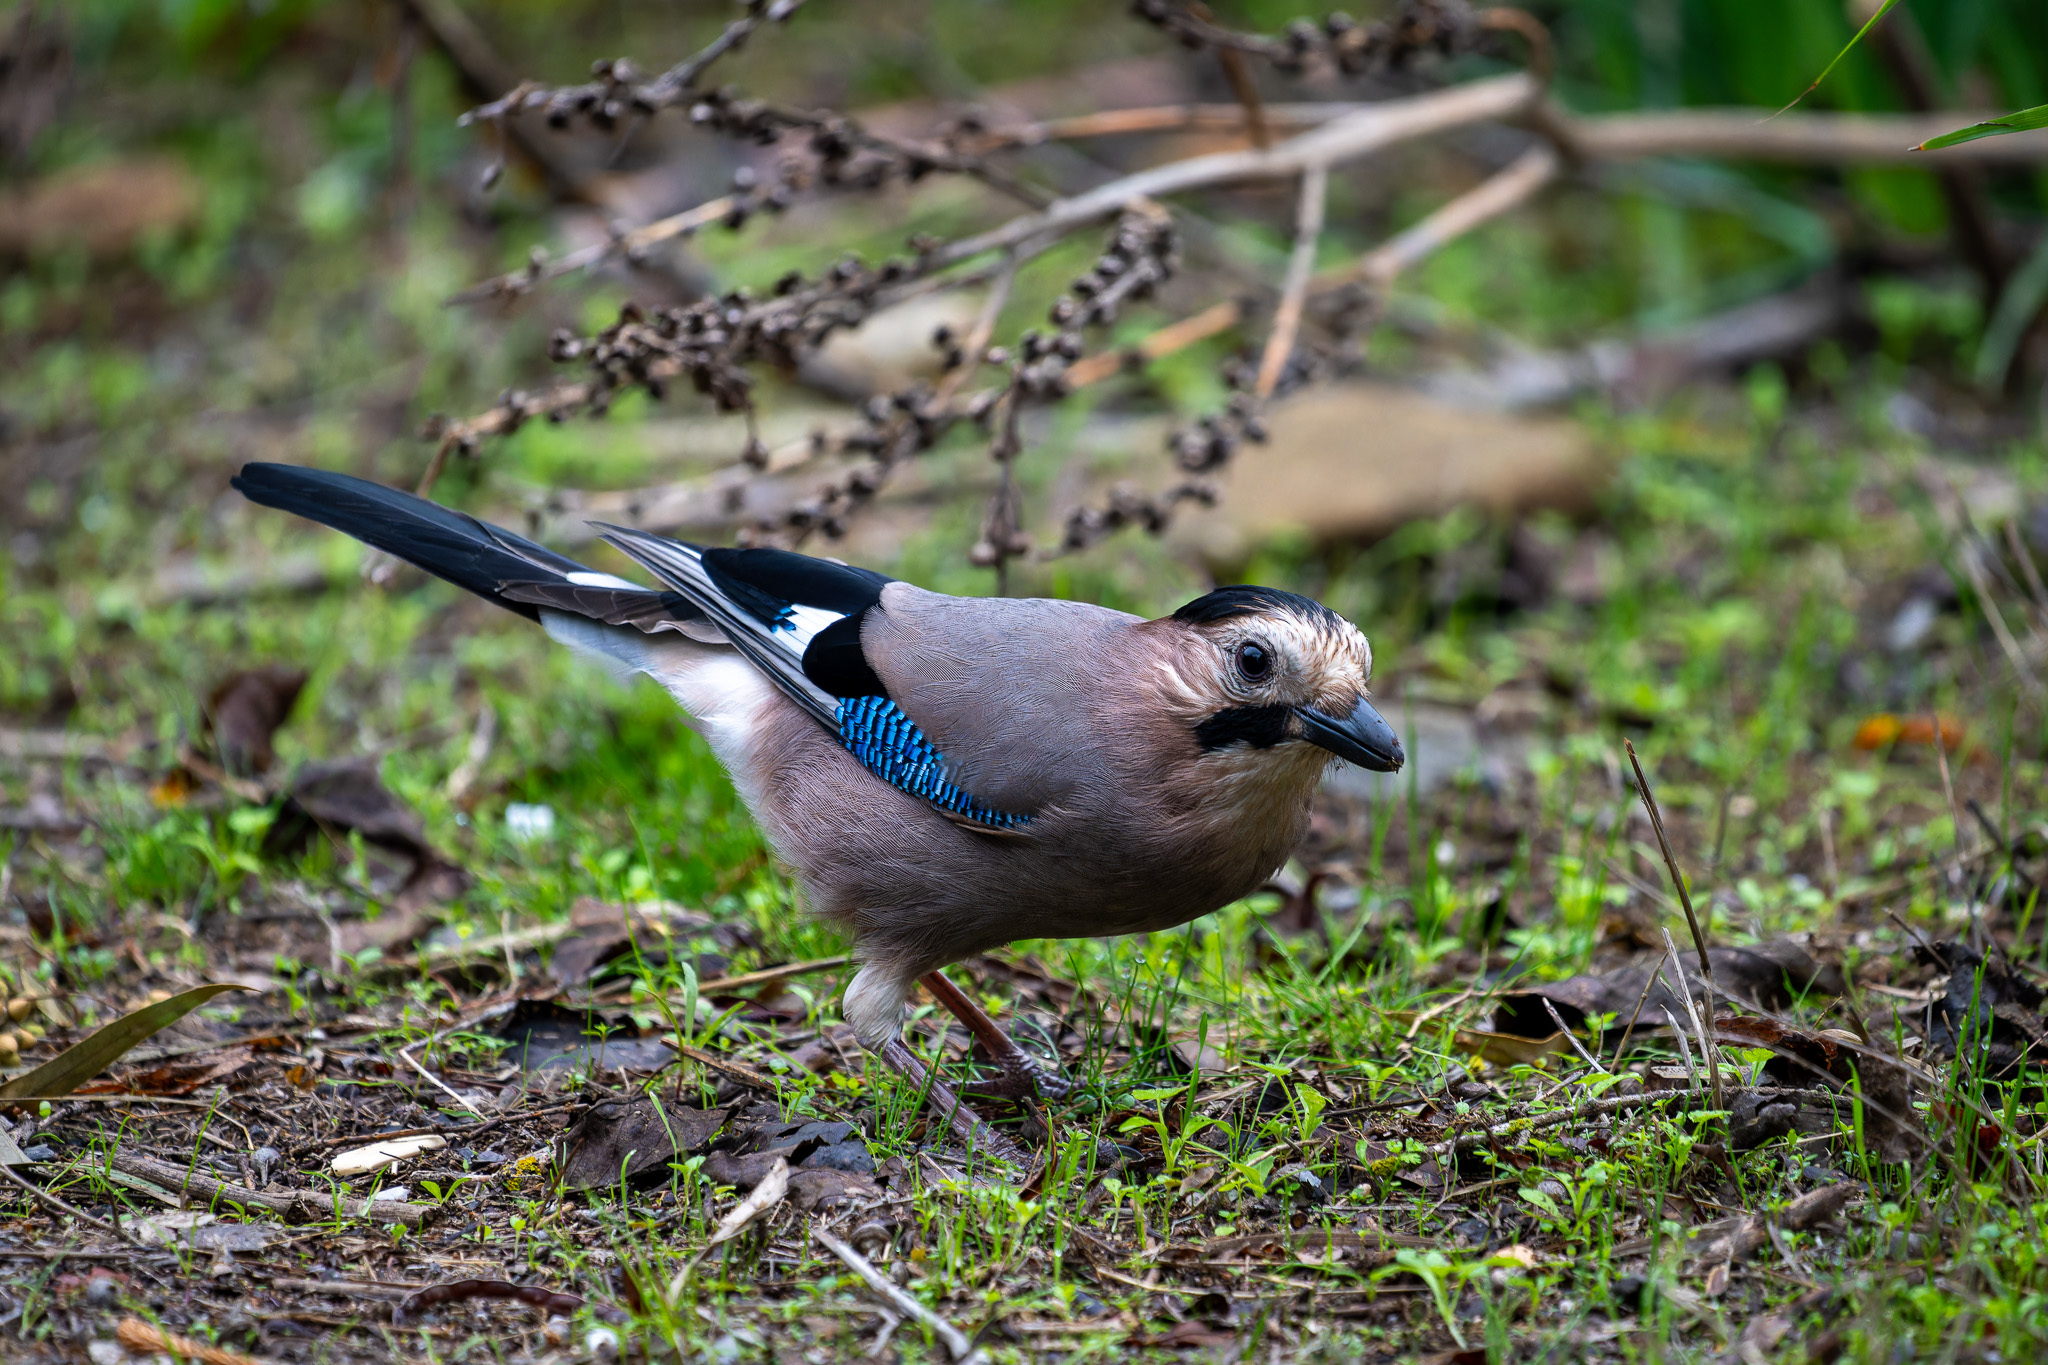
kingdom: Animalia
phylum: Chordata
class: Aves
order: Passeriformes
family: Corvidae
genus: Garrulus
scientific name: Garrulus glandarius
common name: Eurasian jay
